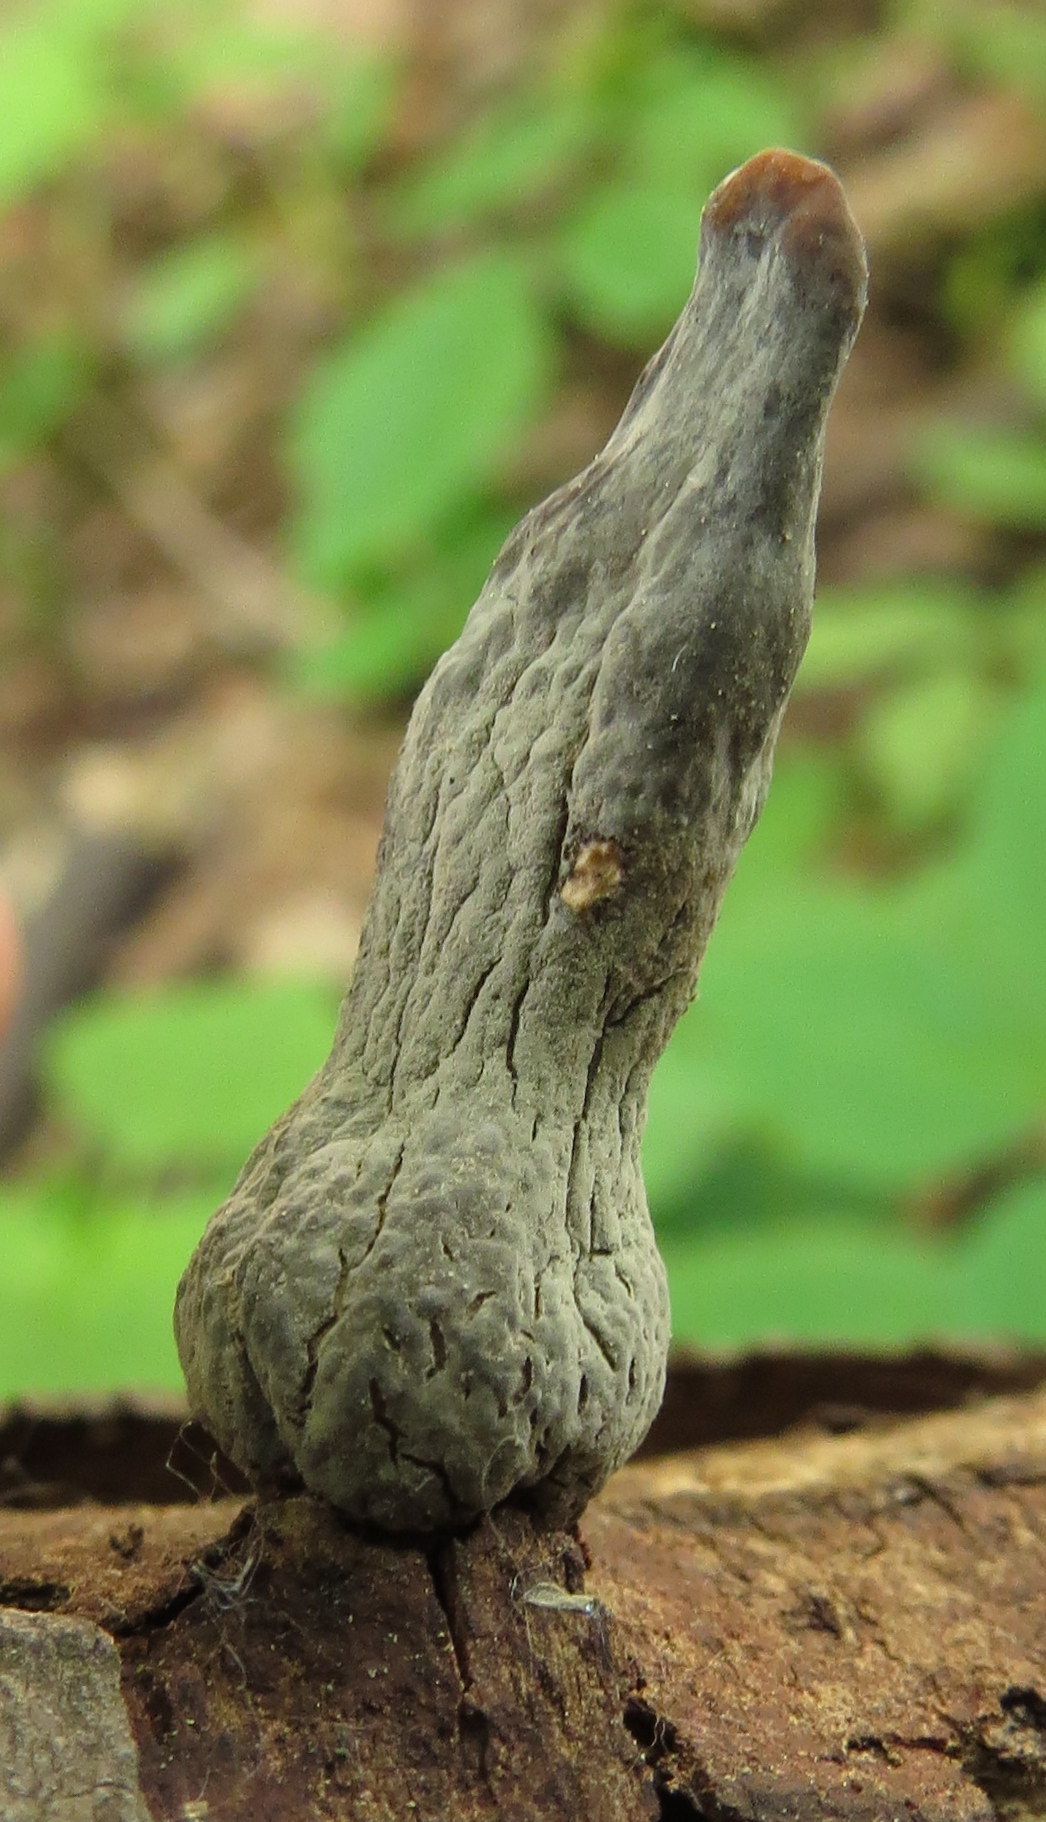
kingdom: Fungi
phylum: Ascomycota
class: Sordariomycetes
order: Xylariales
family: Xylariaceae
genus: Xylaria
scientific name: Xylaria
